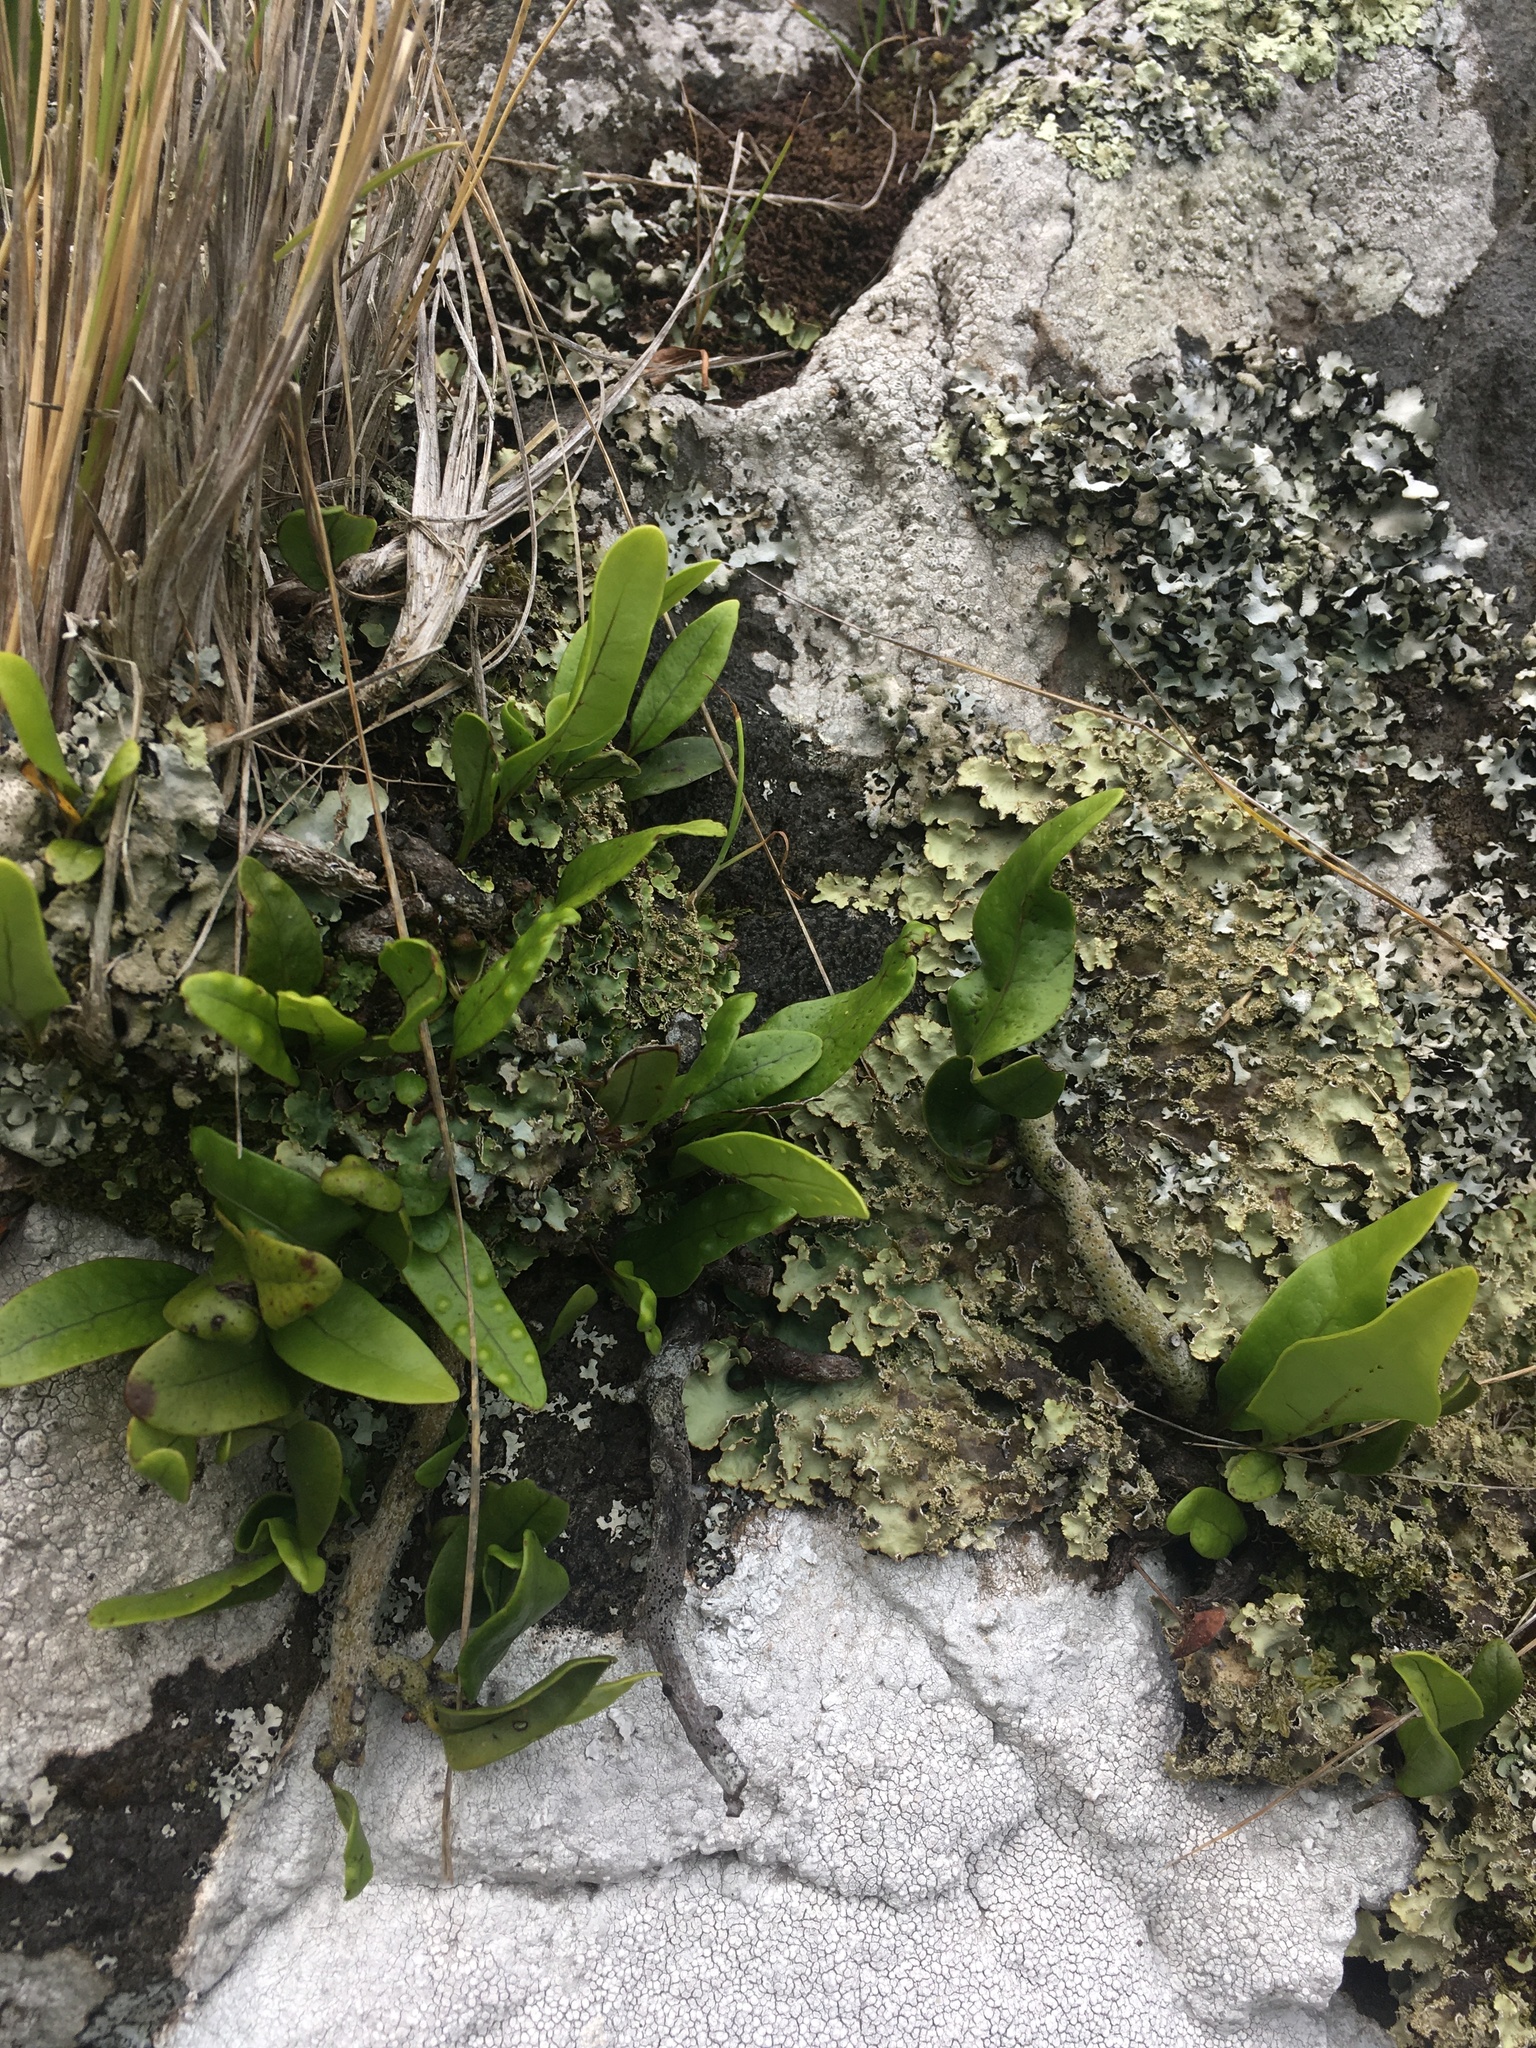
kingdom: Plantae
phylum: Tracheophyta
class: Polypodiopsida
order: Polypodiales
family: Polypodiaceae
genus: Lecanopteris
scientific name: Lecanopteris pustulata
